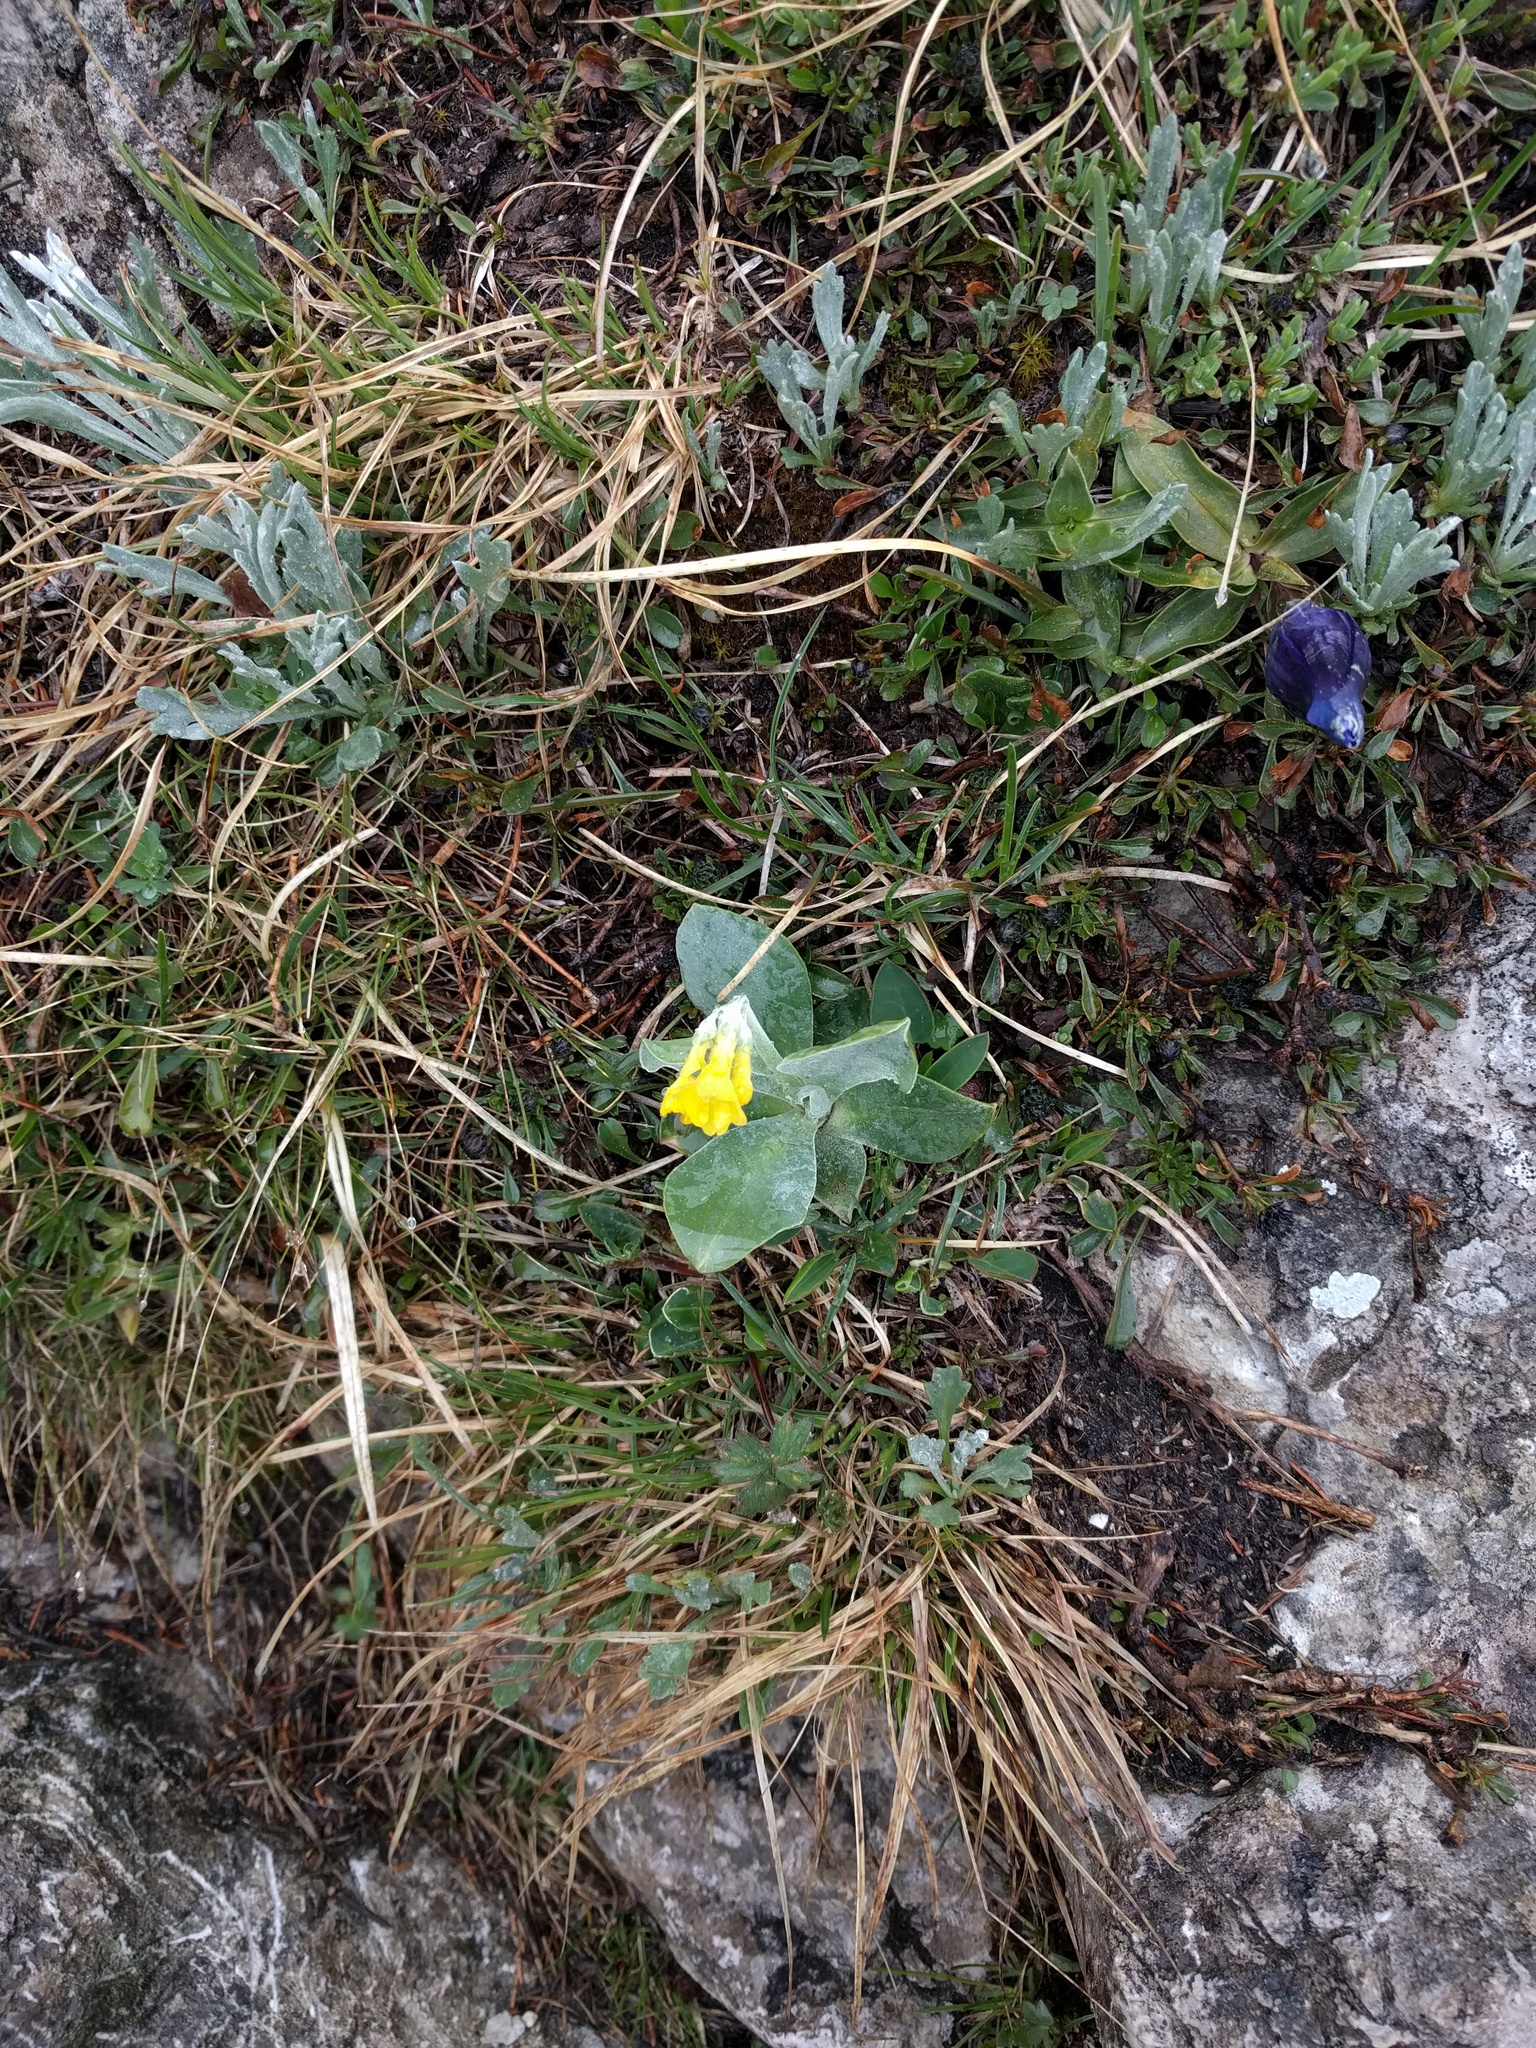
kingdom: Plantae
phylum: Tracheophyta
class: Magnoliopsida
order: Ericales
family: Primulaceae
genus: Primula
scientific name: Primula auricula
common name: Auricula
